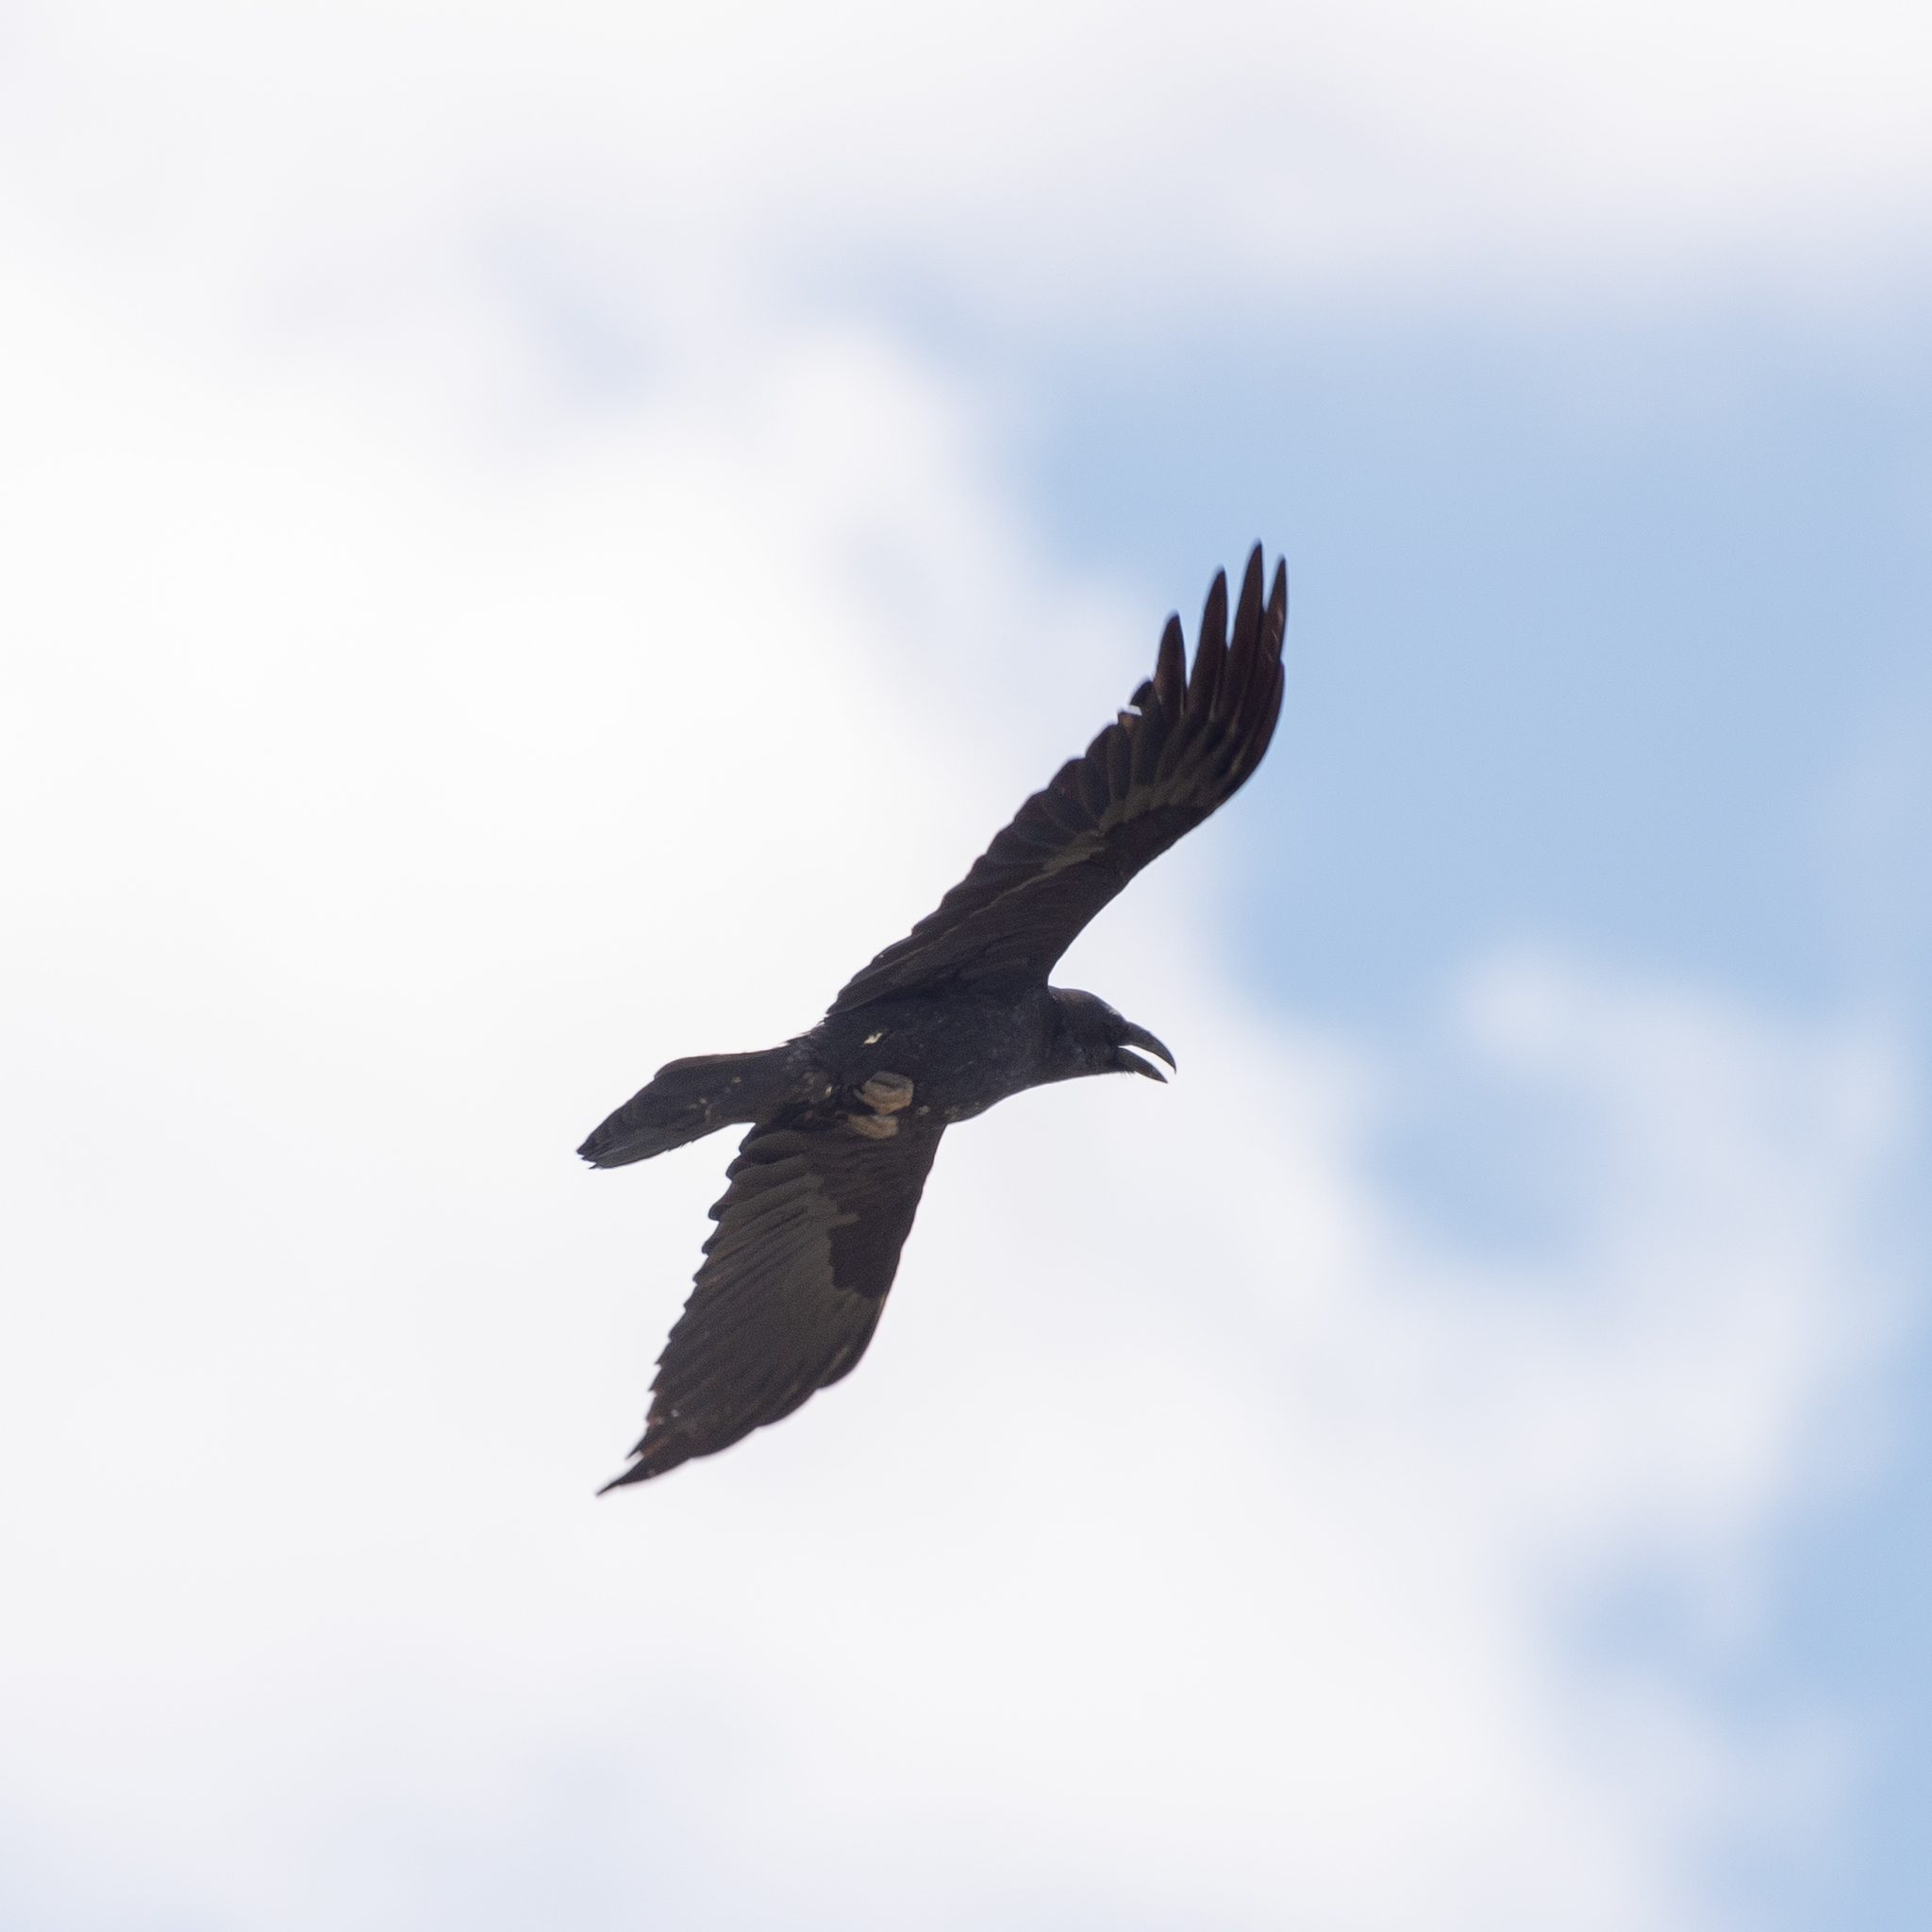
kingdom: Animalia
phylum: Chordata
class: Aves
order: Passeriformes
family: Corvidae
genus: Corvus
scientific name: Corvus corax
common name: Common raven
